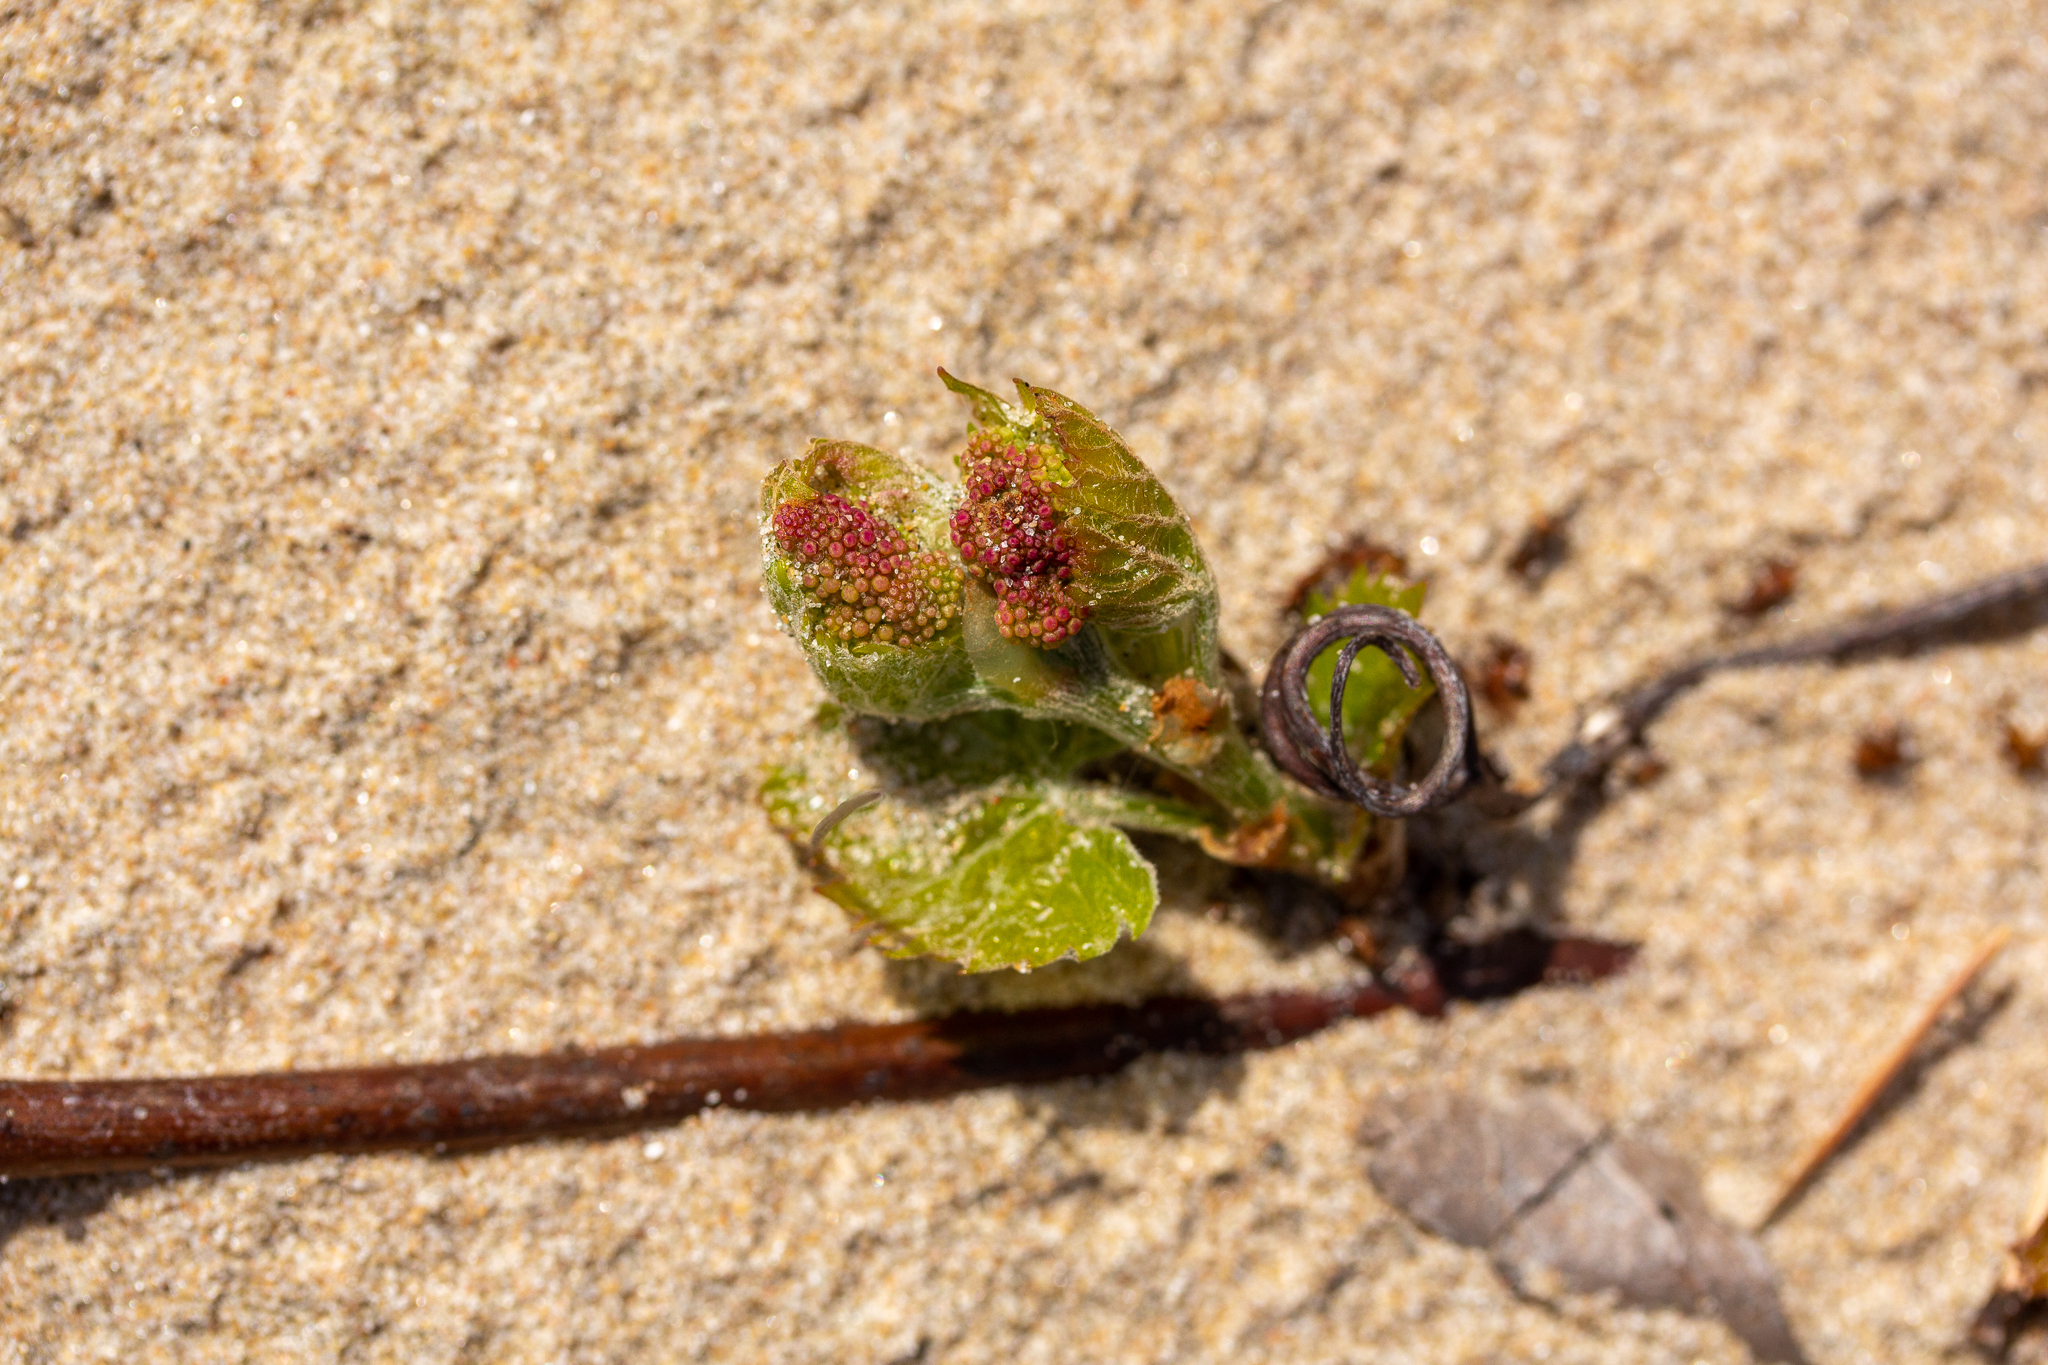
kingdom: Plantae
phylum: Tracheophyta
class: Magnoliopsida
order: Vitales
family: Vitaceae
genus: Vitis
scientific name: Vitis riparia
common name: Frost grape
